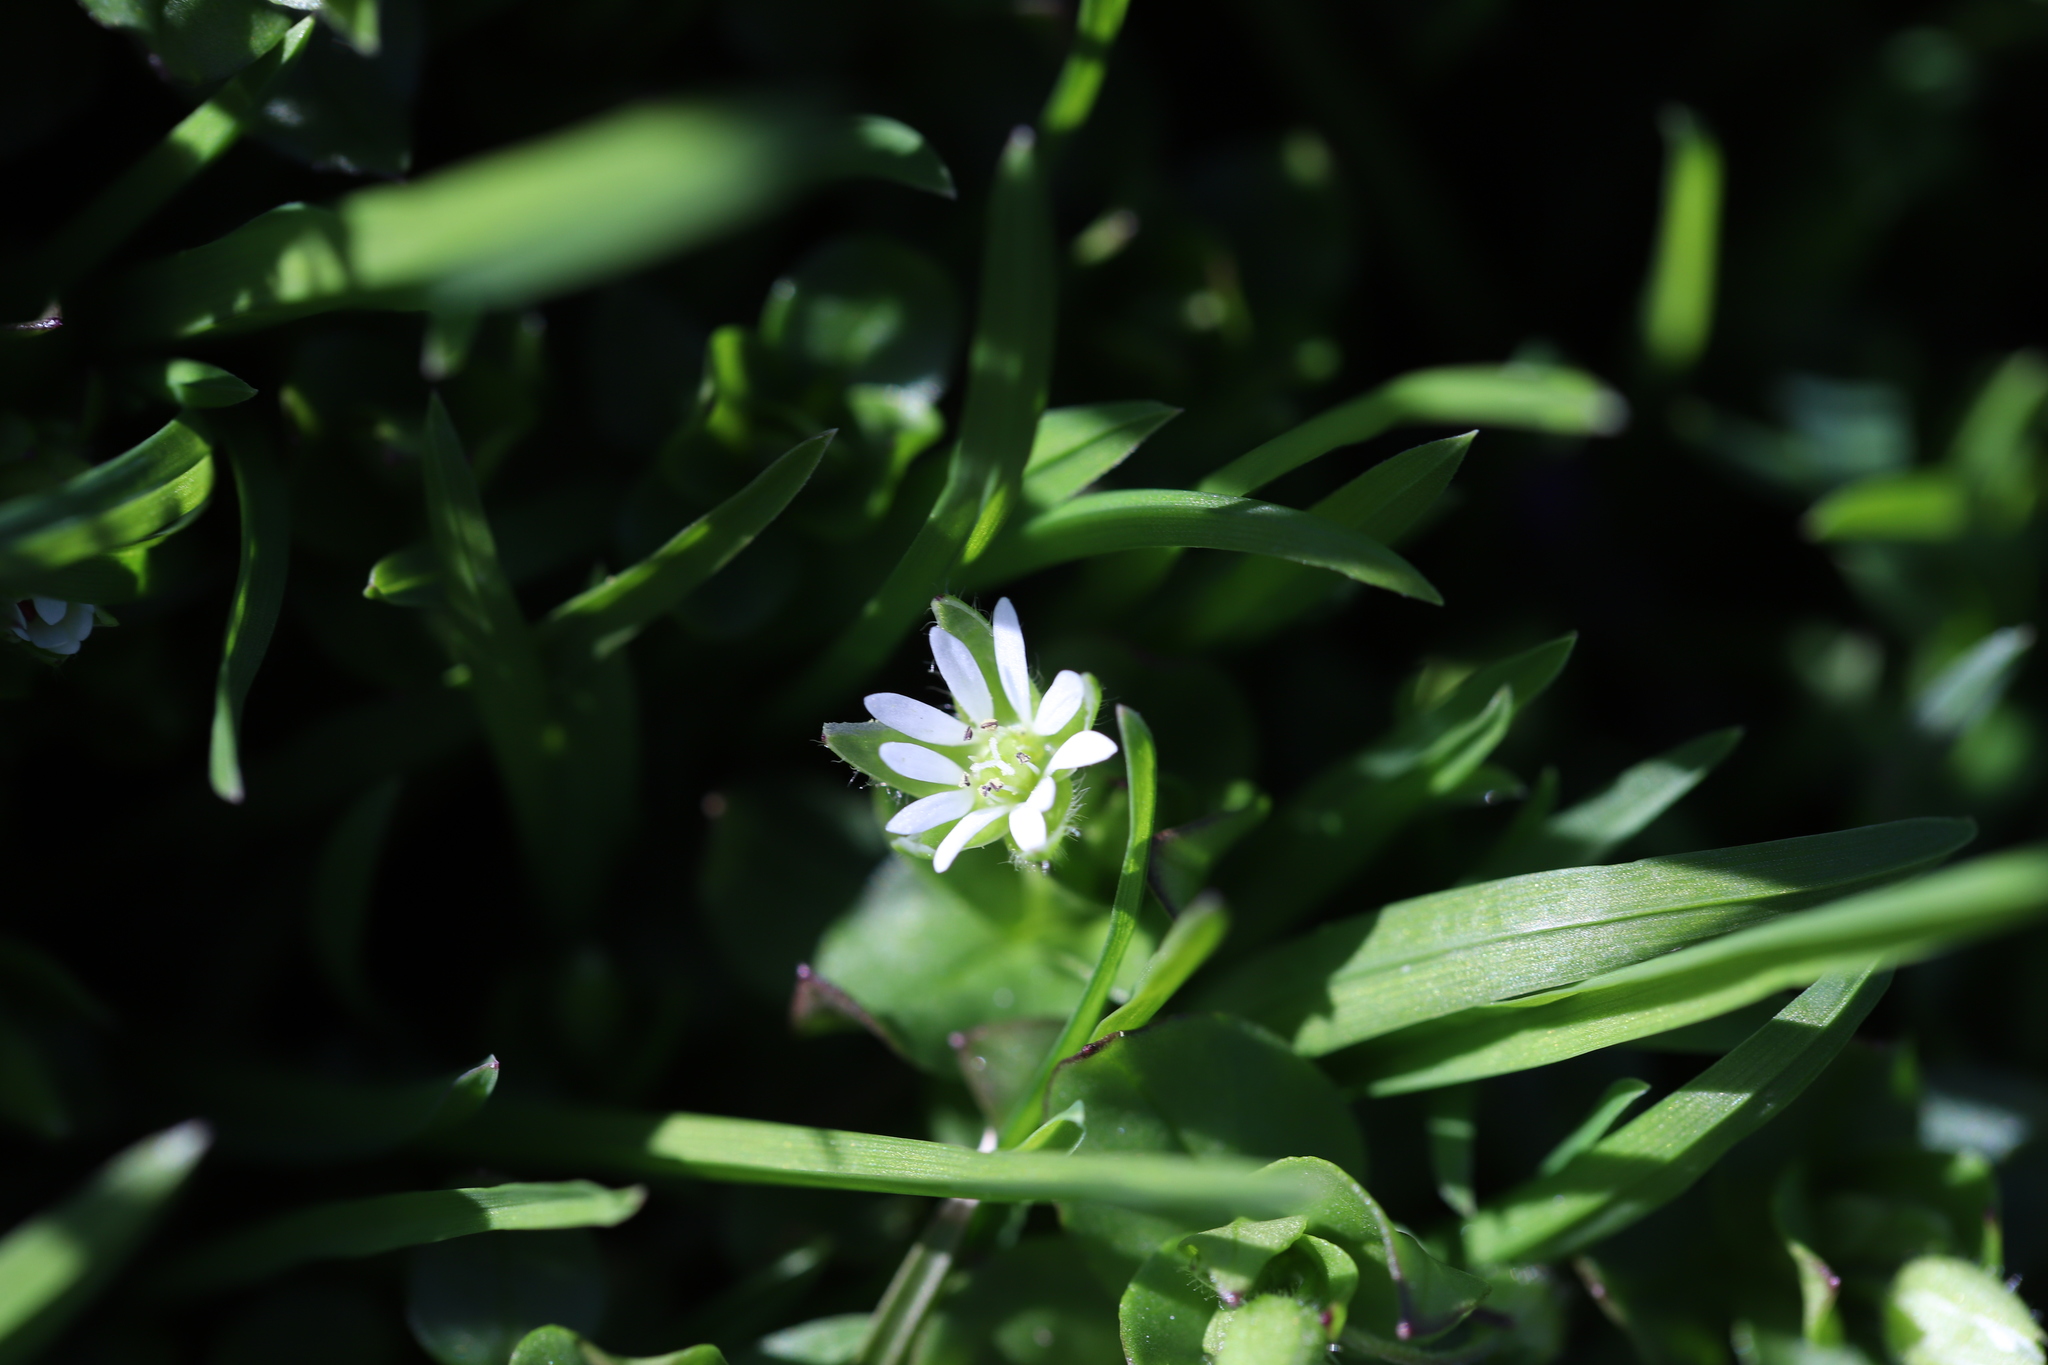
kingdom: Plantae
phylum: Tracheophyta
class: Magnoliopsida
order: Caryophyllales
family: Caryophyllaceae
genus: Stellaria
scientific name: Stellaria media
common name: Common chickweed
